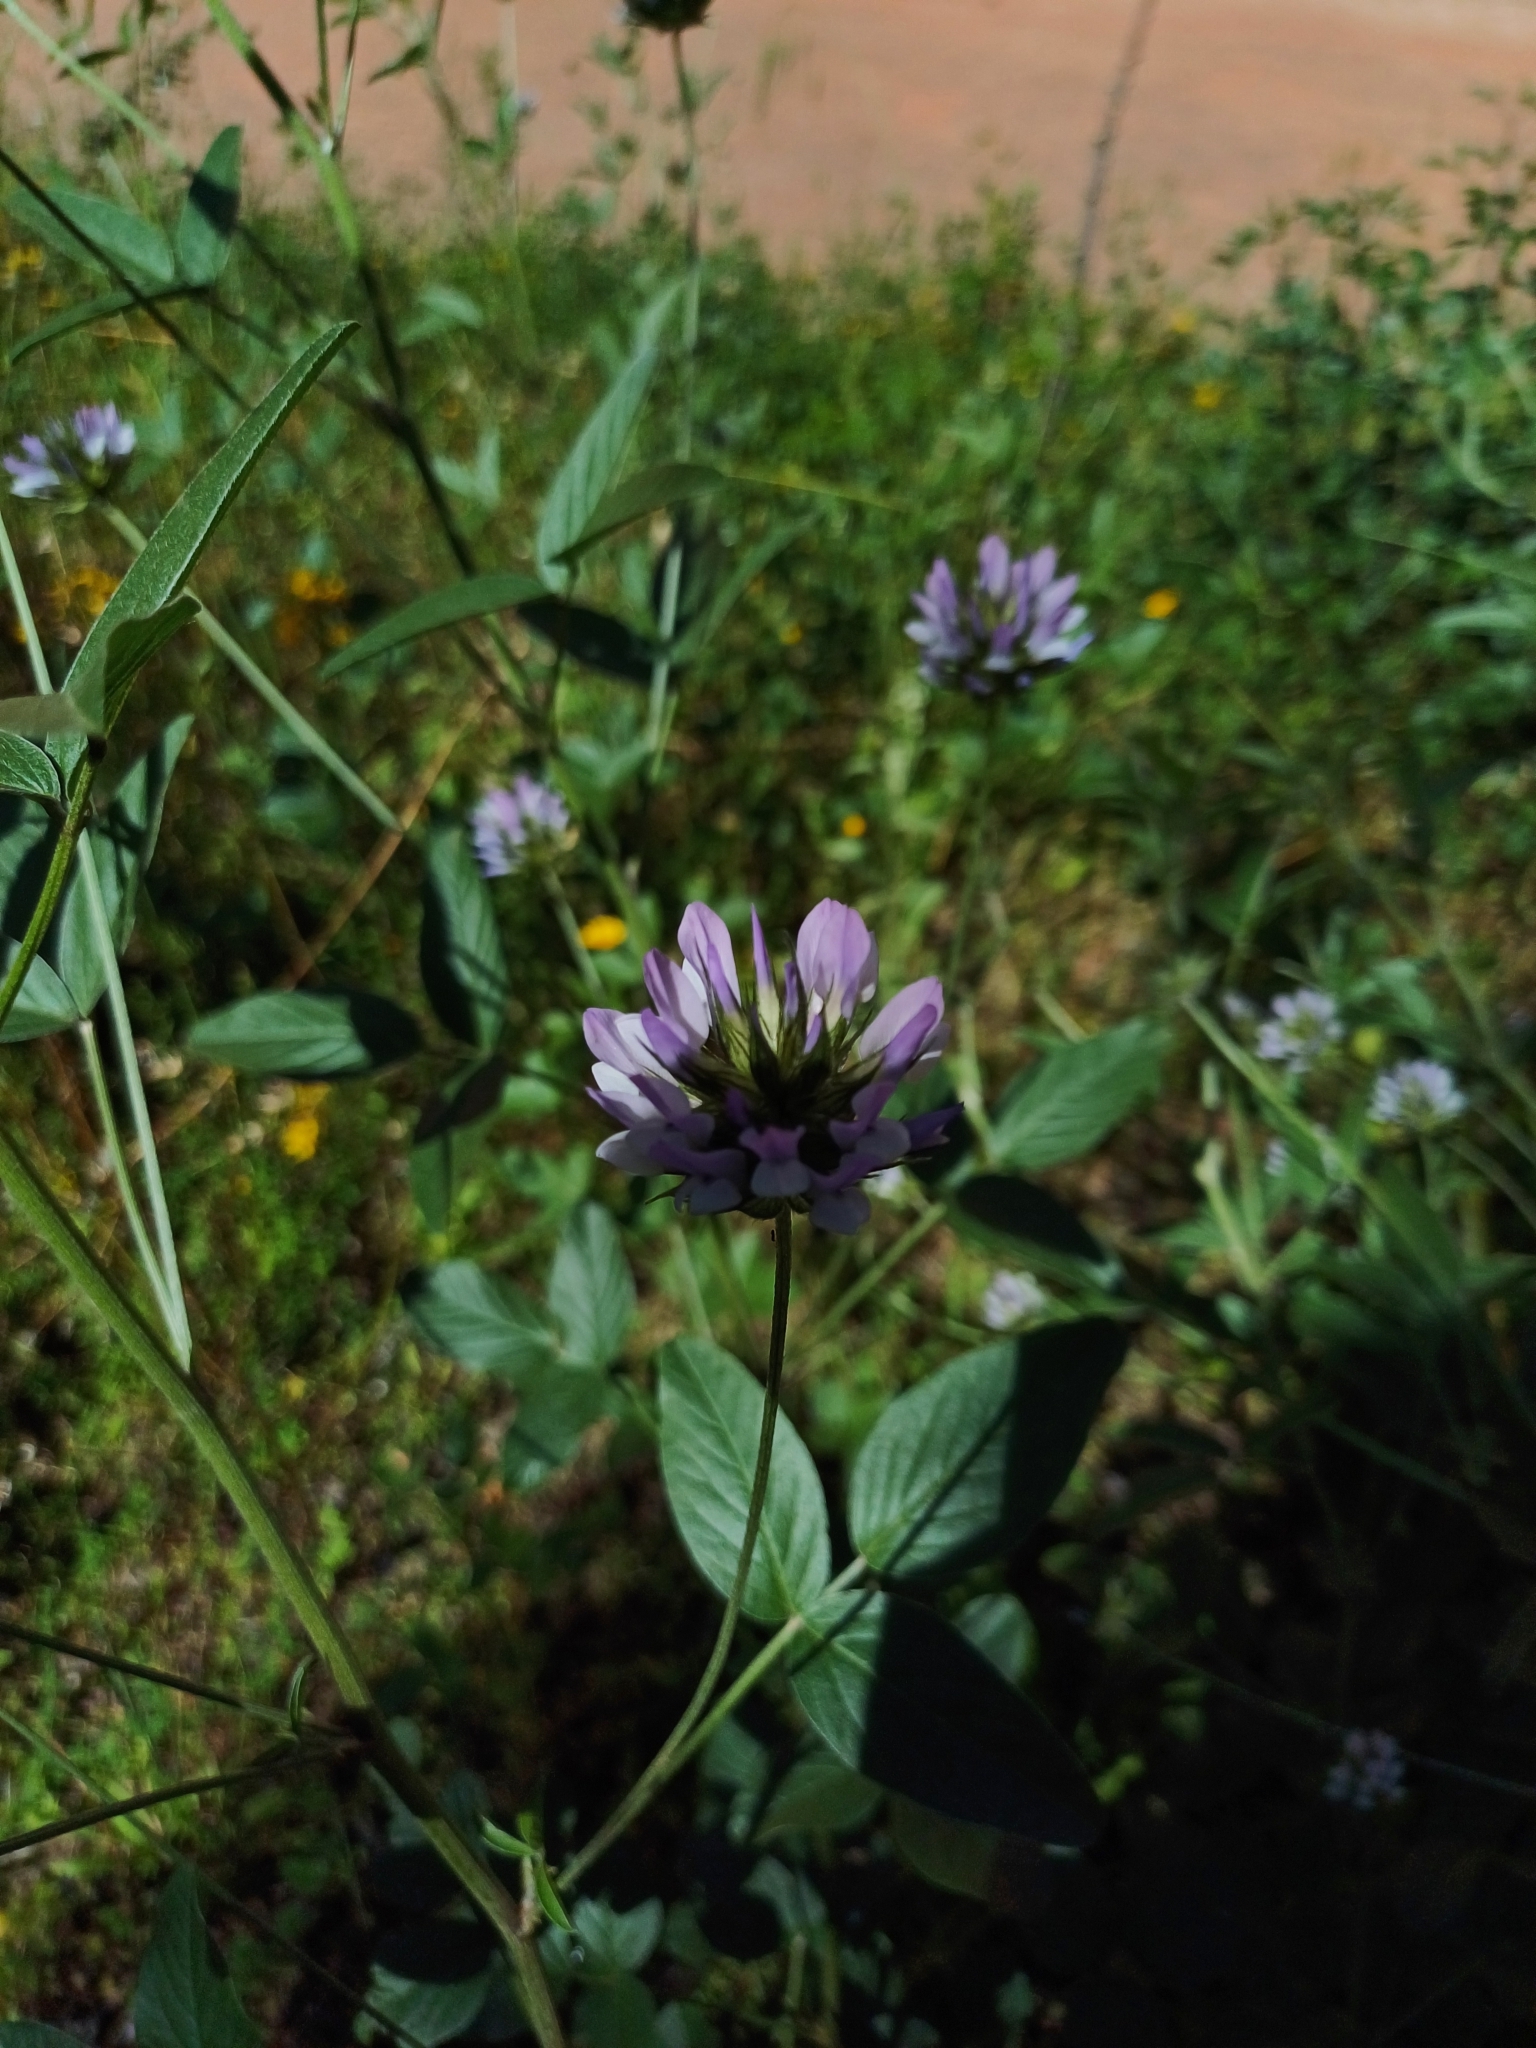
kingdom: Plantae
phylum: Tracheophyta
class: Magnoliopsida
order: Fabales
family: Fabaceae
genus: Bituminaria
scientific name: Bituminaria bituminosa
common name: Arabian pea
